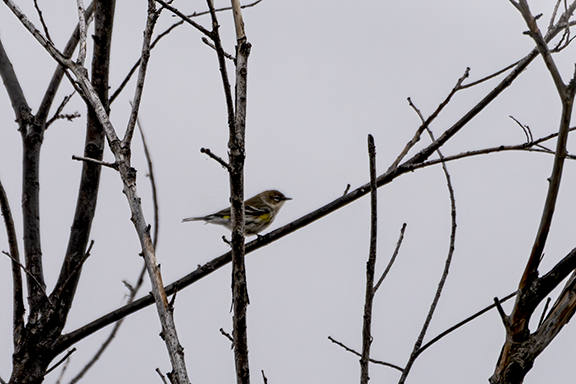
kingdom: Animalia
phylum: Chordata
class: Aves
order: Passeriformes
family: Parulidae
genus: Setophaga
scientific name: Setophaga coronata
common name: Myrtle warbler
